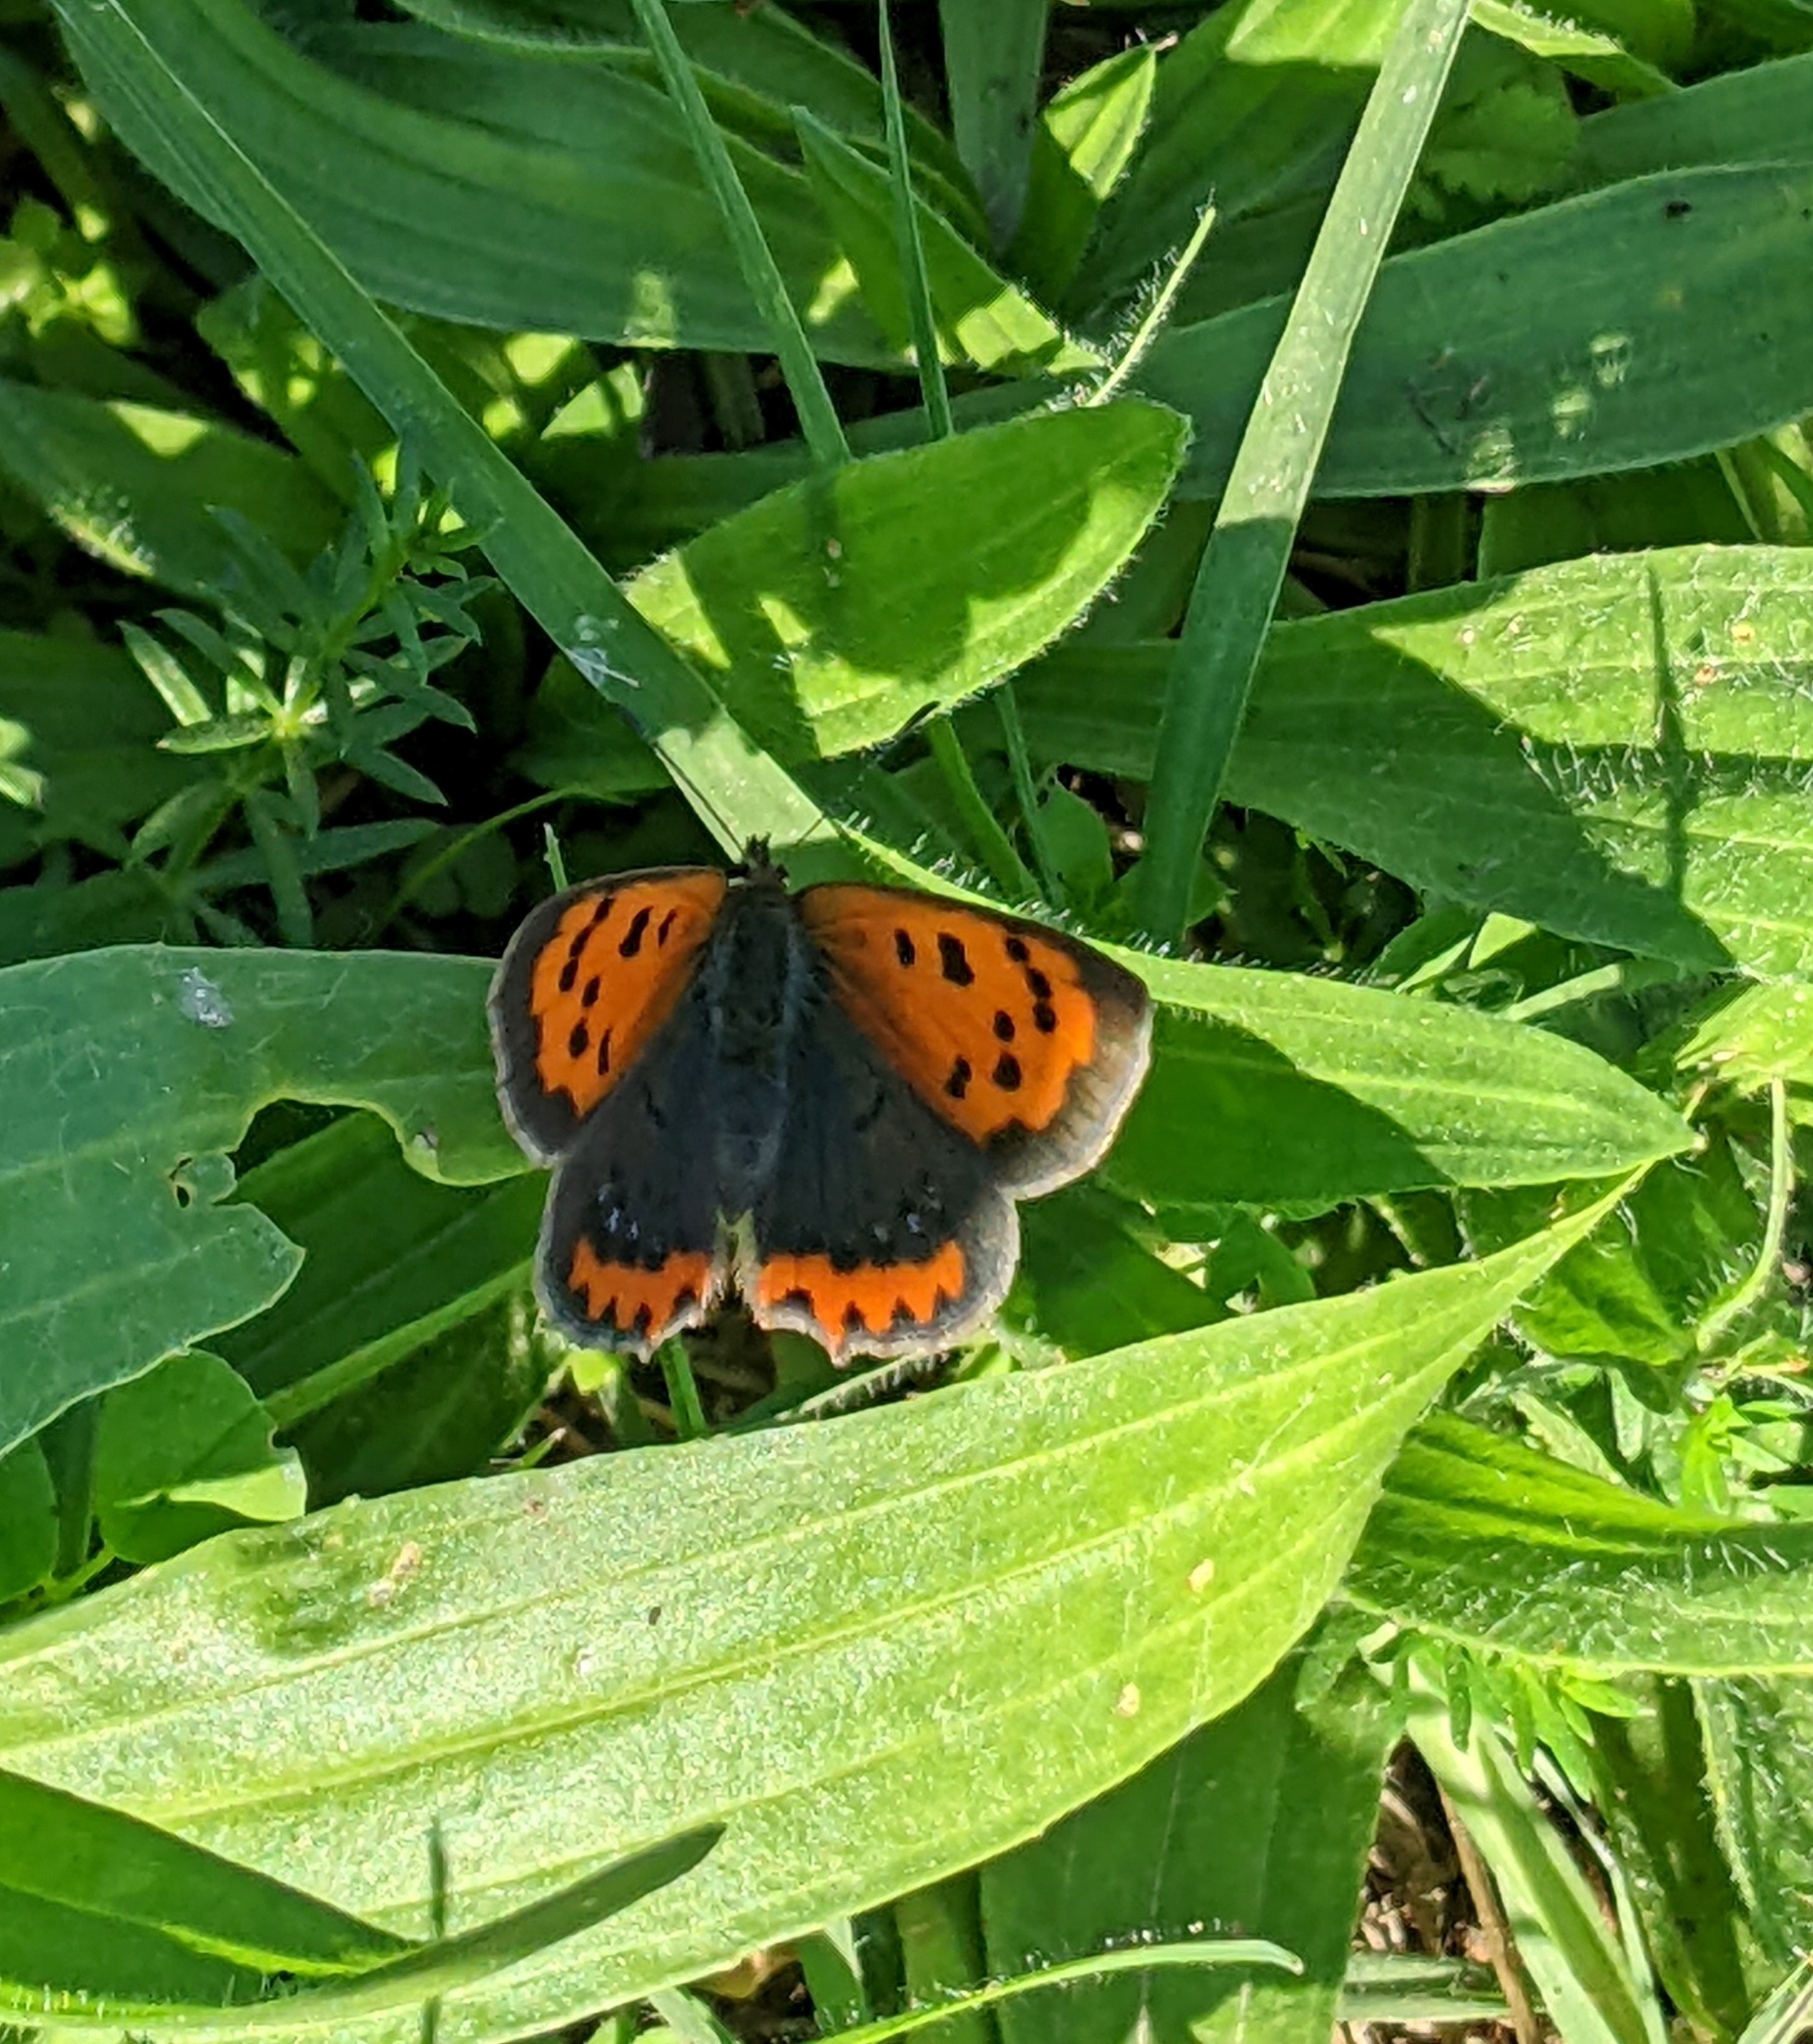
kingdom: Animalia
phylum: Arthropoda
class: Insecta
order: Lepidoptera
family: Lycaenidae
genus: Lycaena
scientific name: Lycaena phlaeas
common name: Small copper
